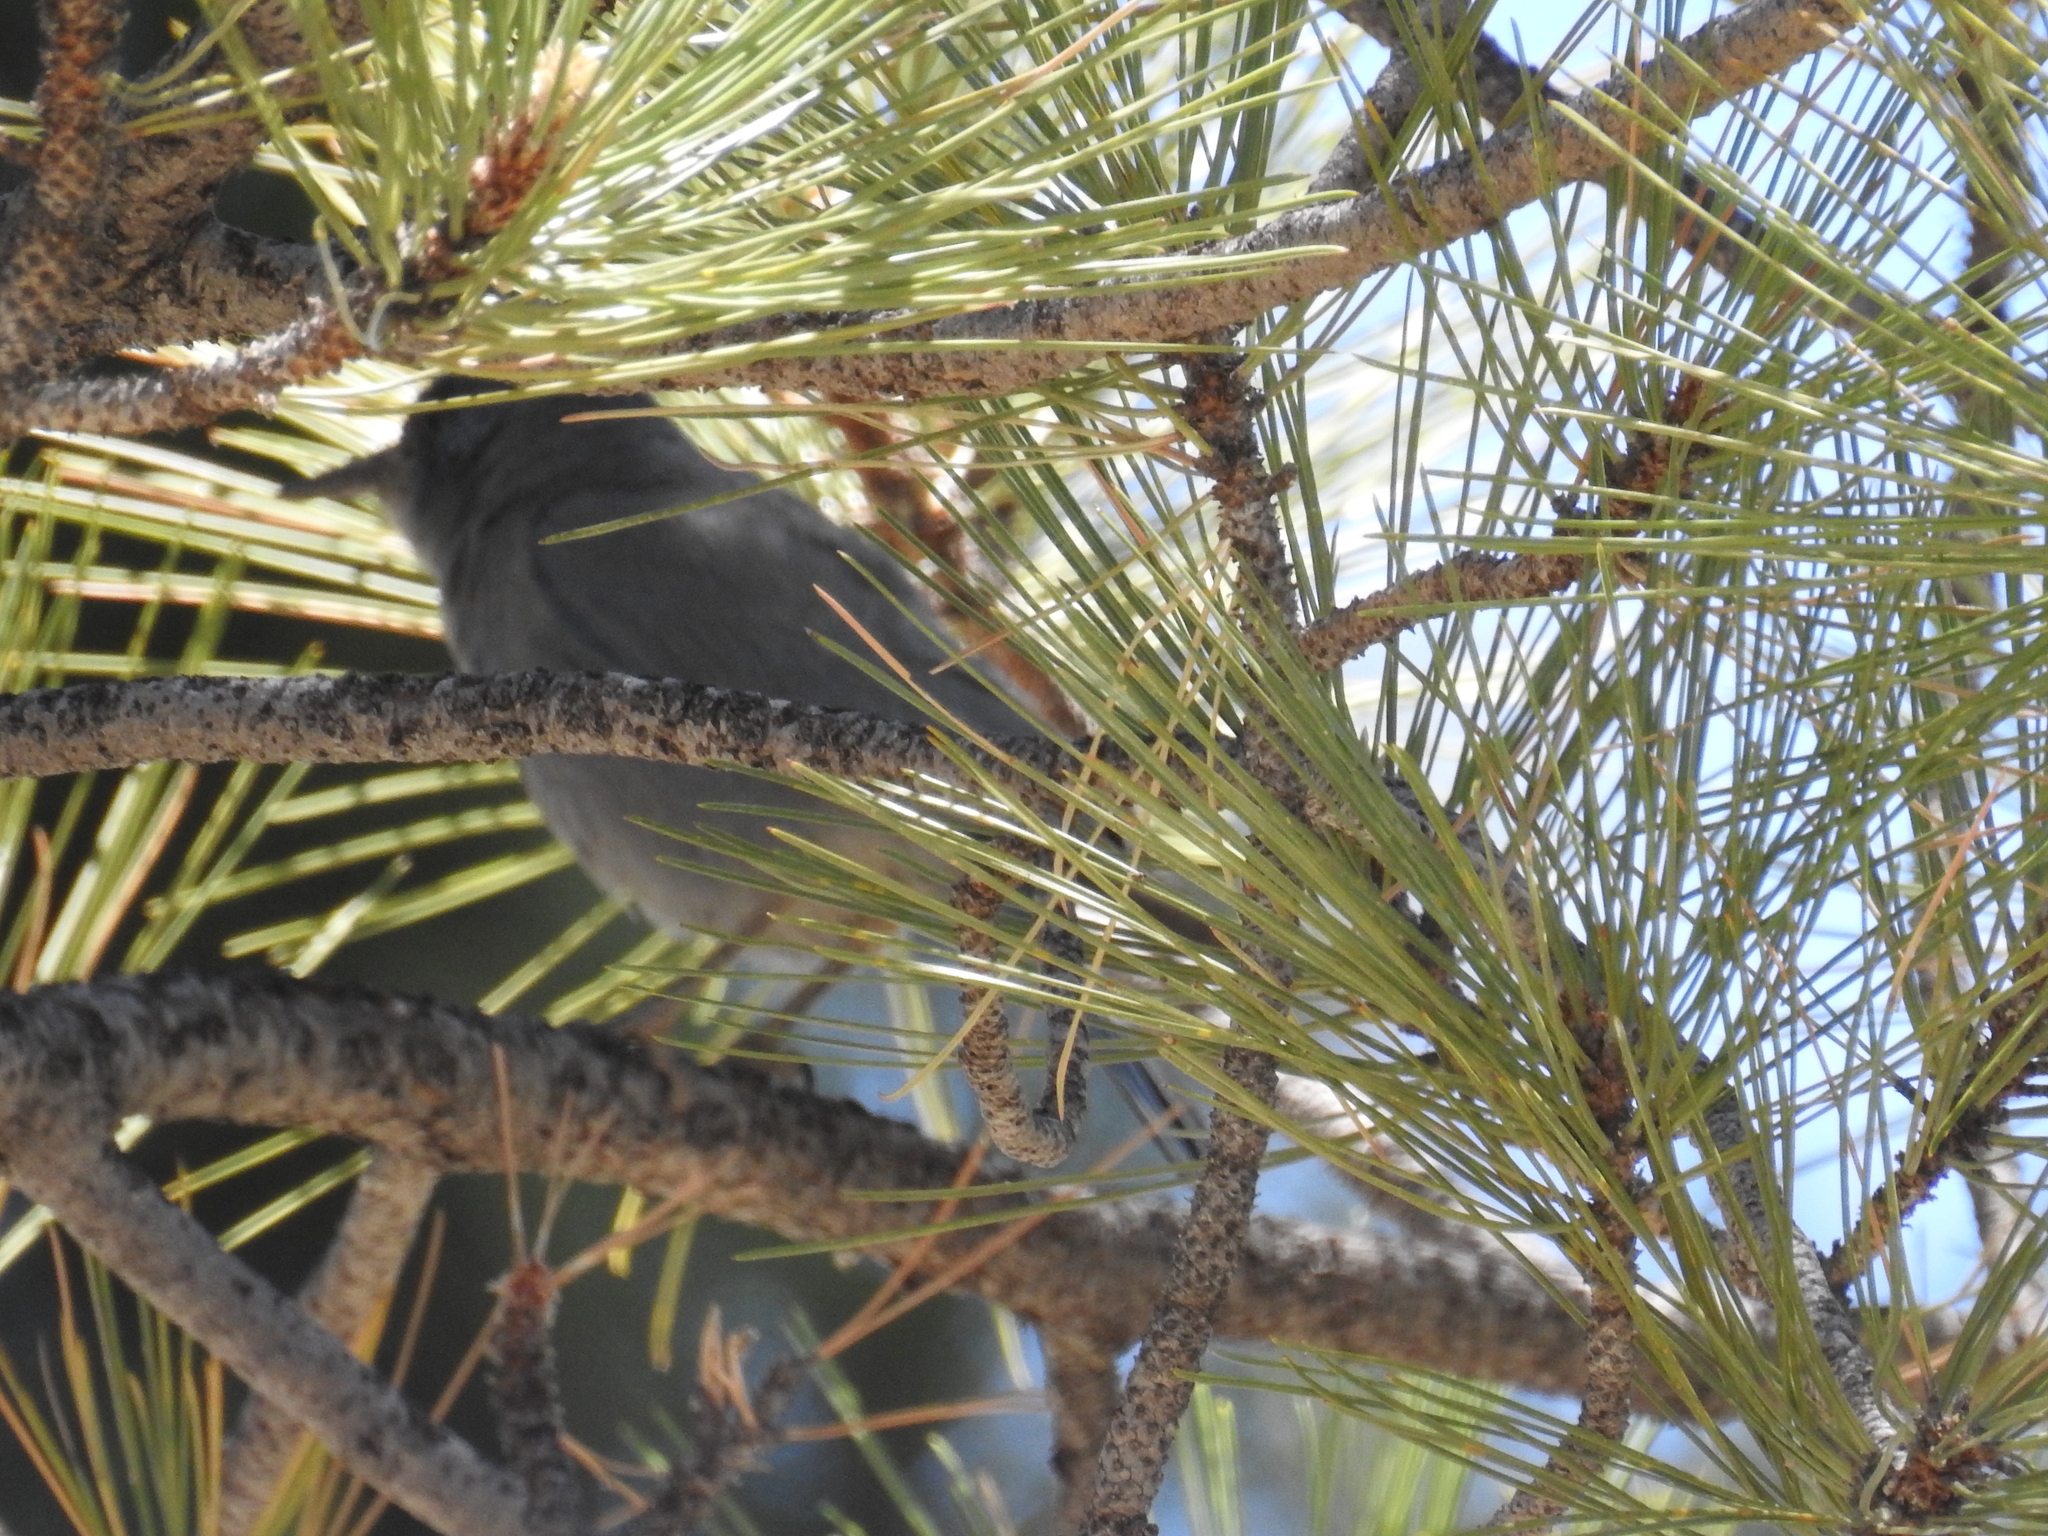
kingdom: Animalia
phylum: Chordata
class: Aves
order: Passeriformes
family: Corvidae
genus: Gymnorhinus
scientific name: Gymnorhinus cyanocephalus
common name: Pinyon jay
